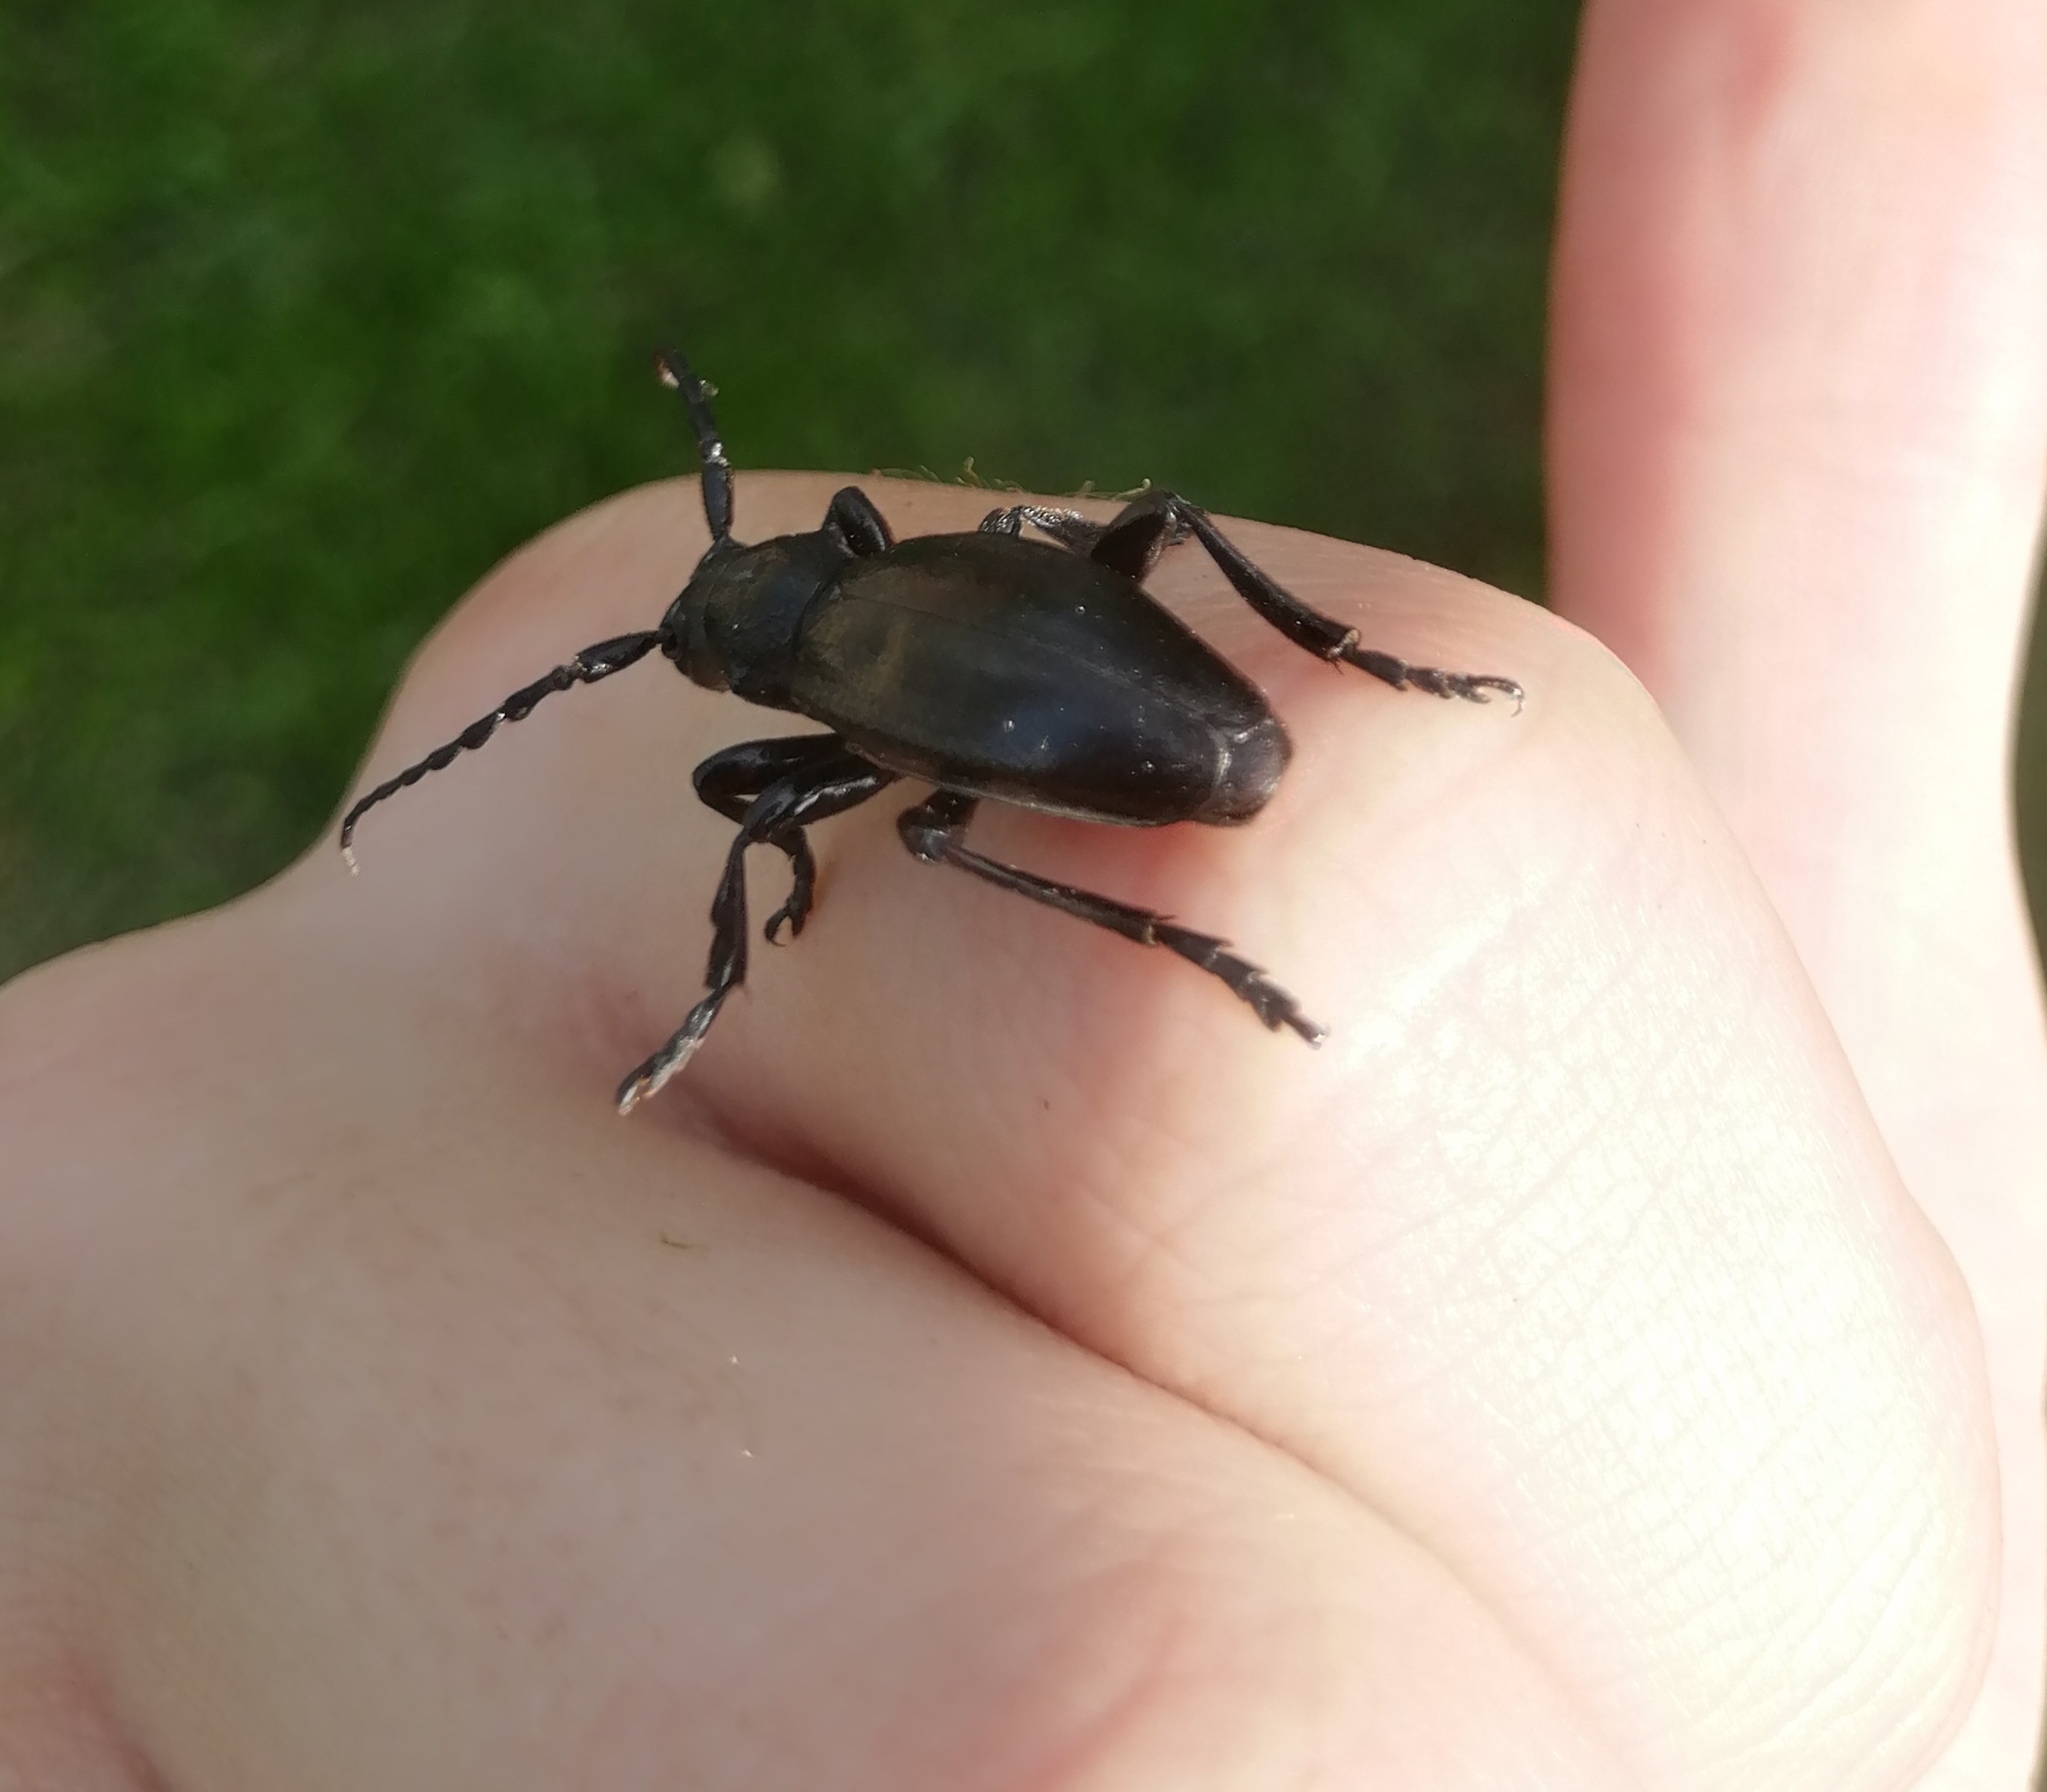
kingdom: Animalia
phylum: Arthropoda
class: Insecta
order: Coleoptera
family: Cerambycidae
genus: Dorcadion
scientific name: Dorcadion carinatum
